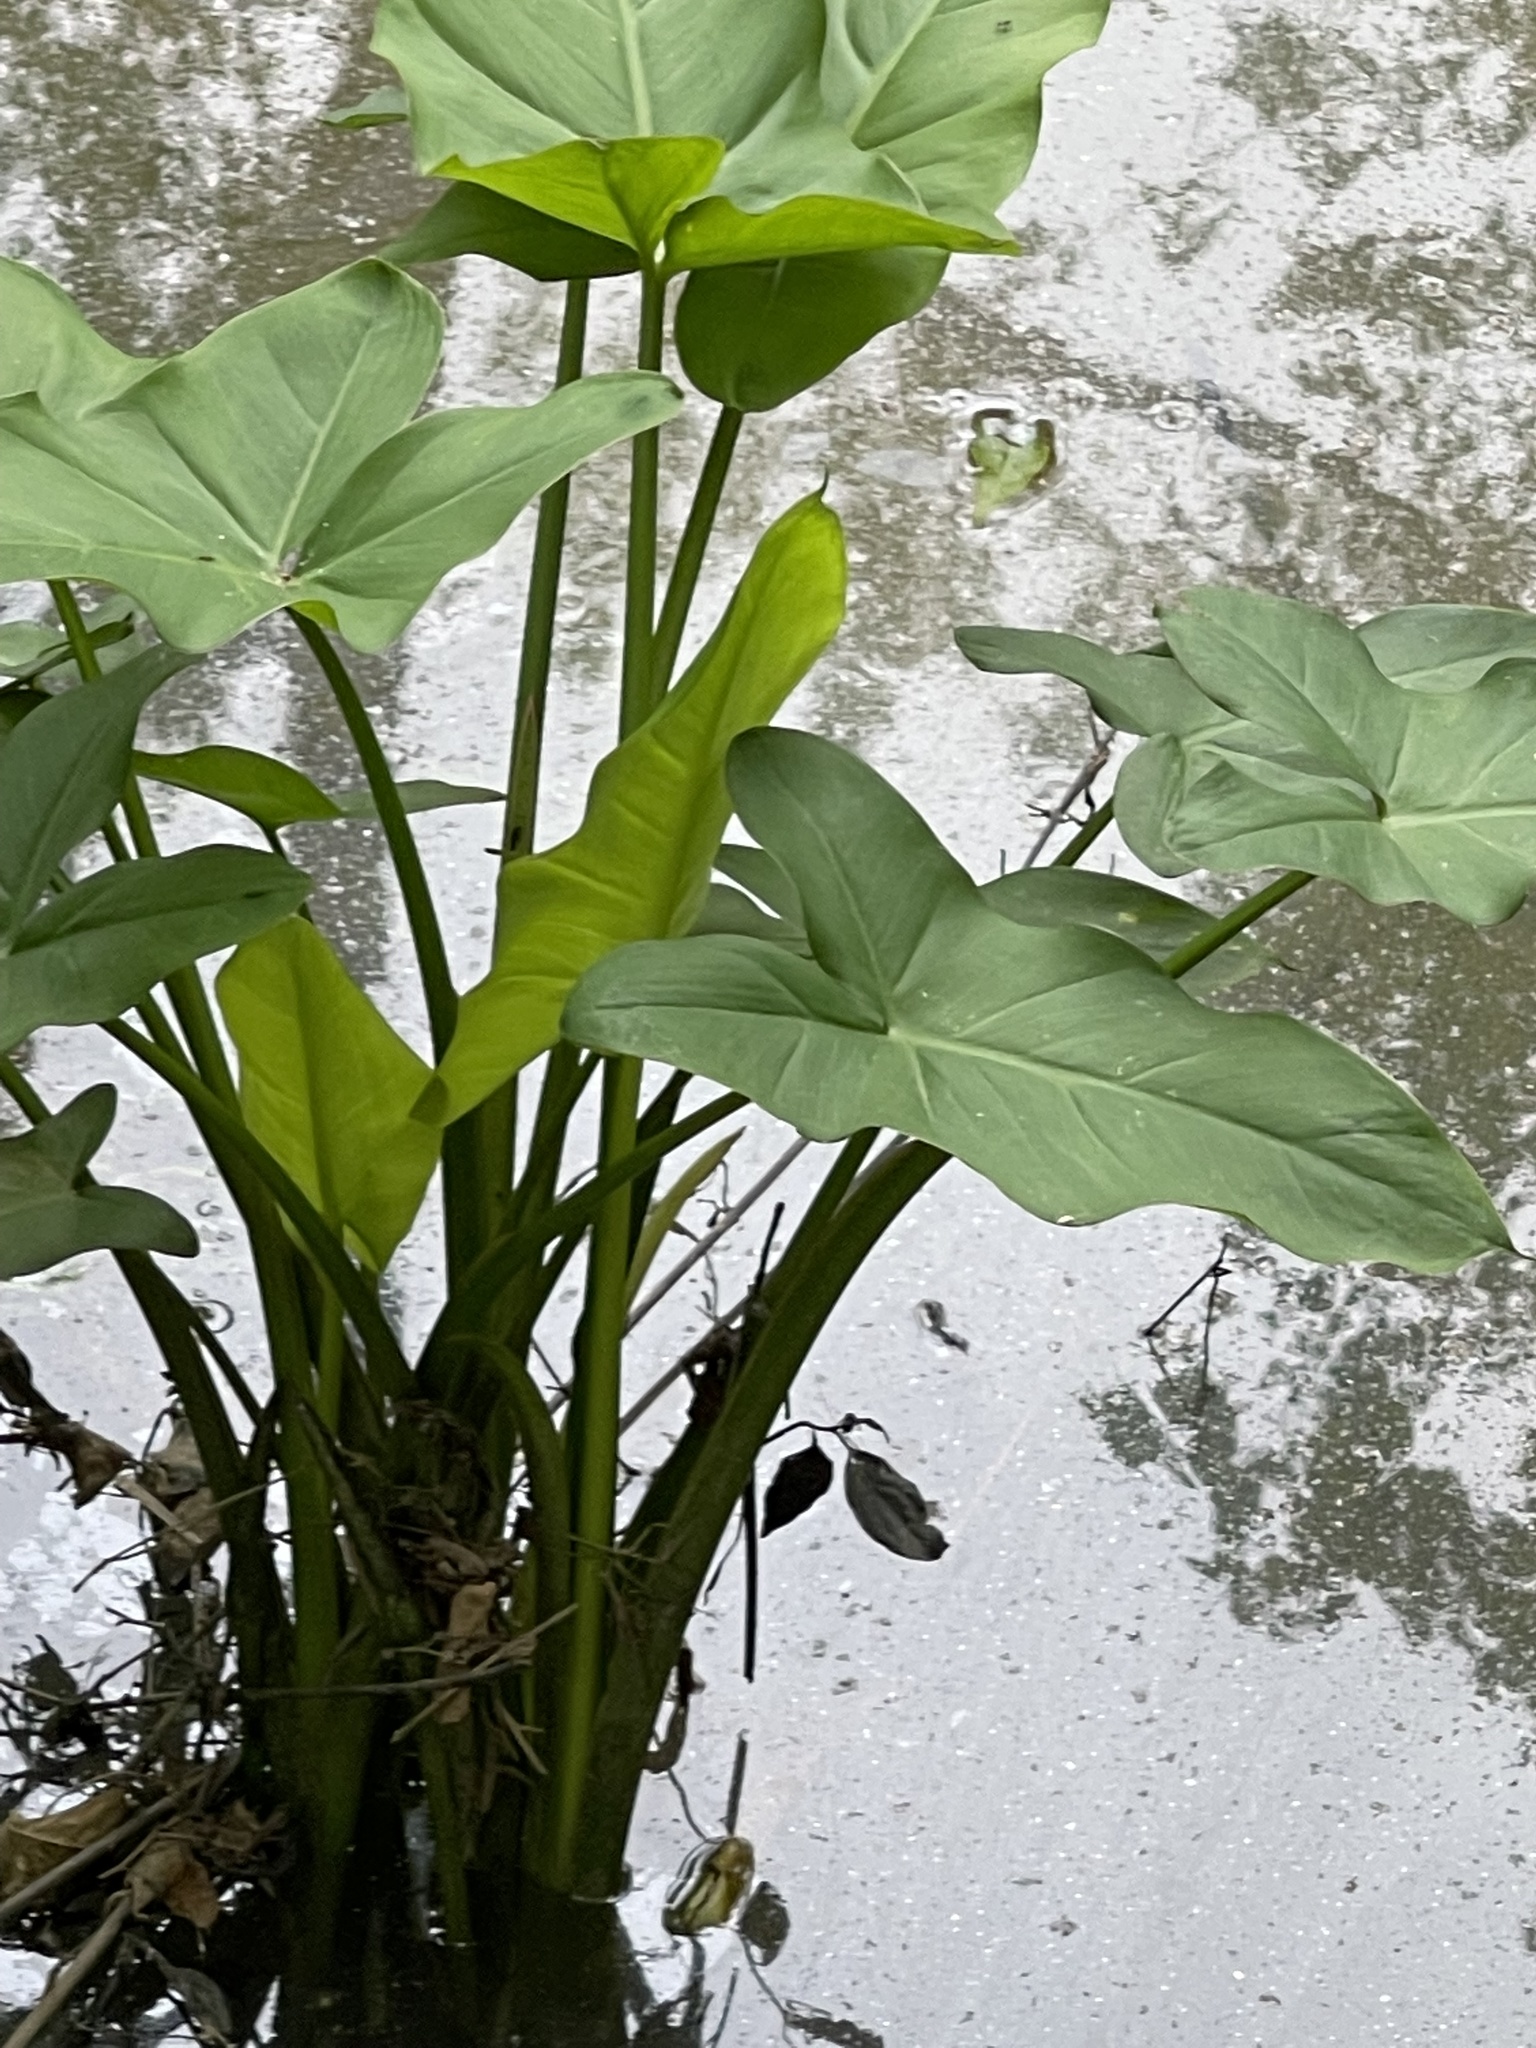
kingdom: Plantae
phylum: Tracheophyta
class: Liliopsida
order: Alismatales
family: Araceae
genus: Peltandra
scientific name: Peltandra virginica
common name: Arrow arum
